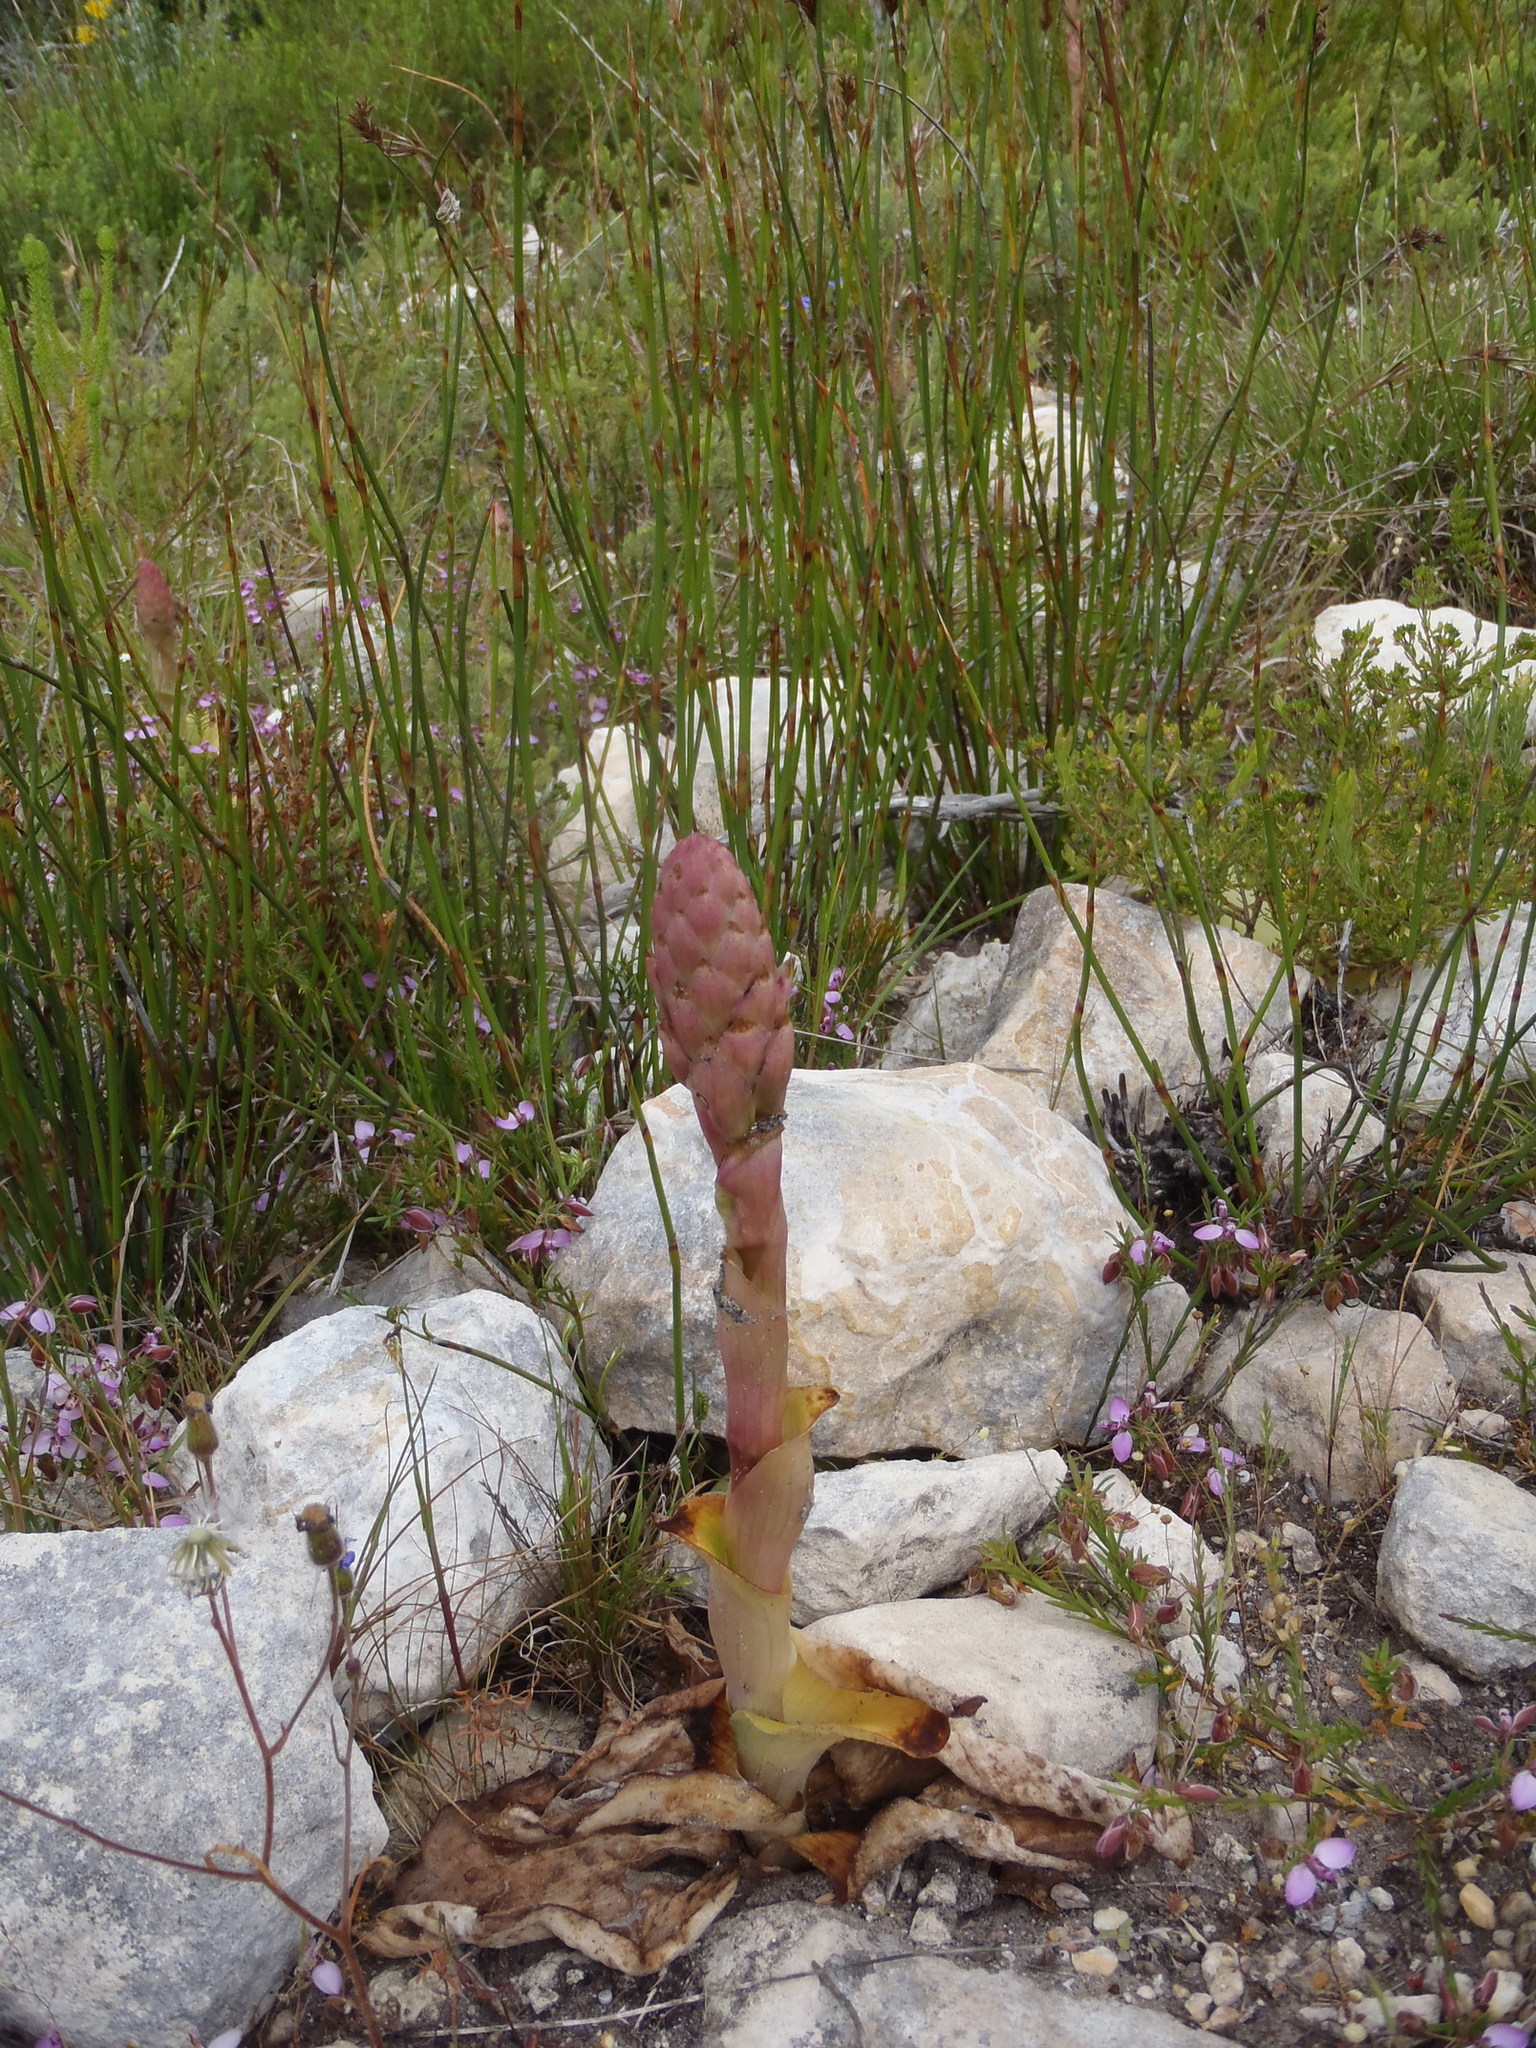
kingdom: Plantae
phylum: Tracheophyta
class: Liliopsida
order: Asparagales
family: Orchidaceae
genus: Satyrium
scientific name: Satyrium carneum
